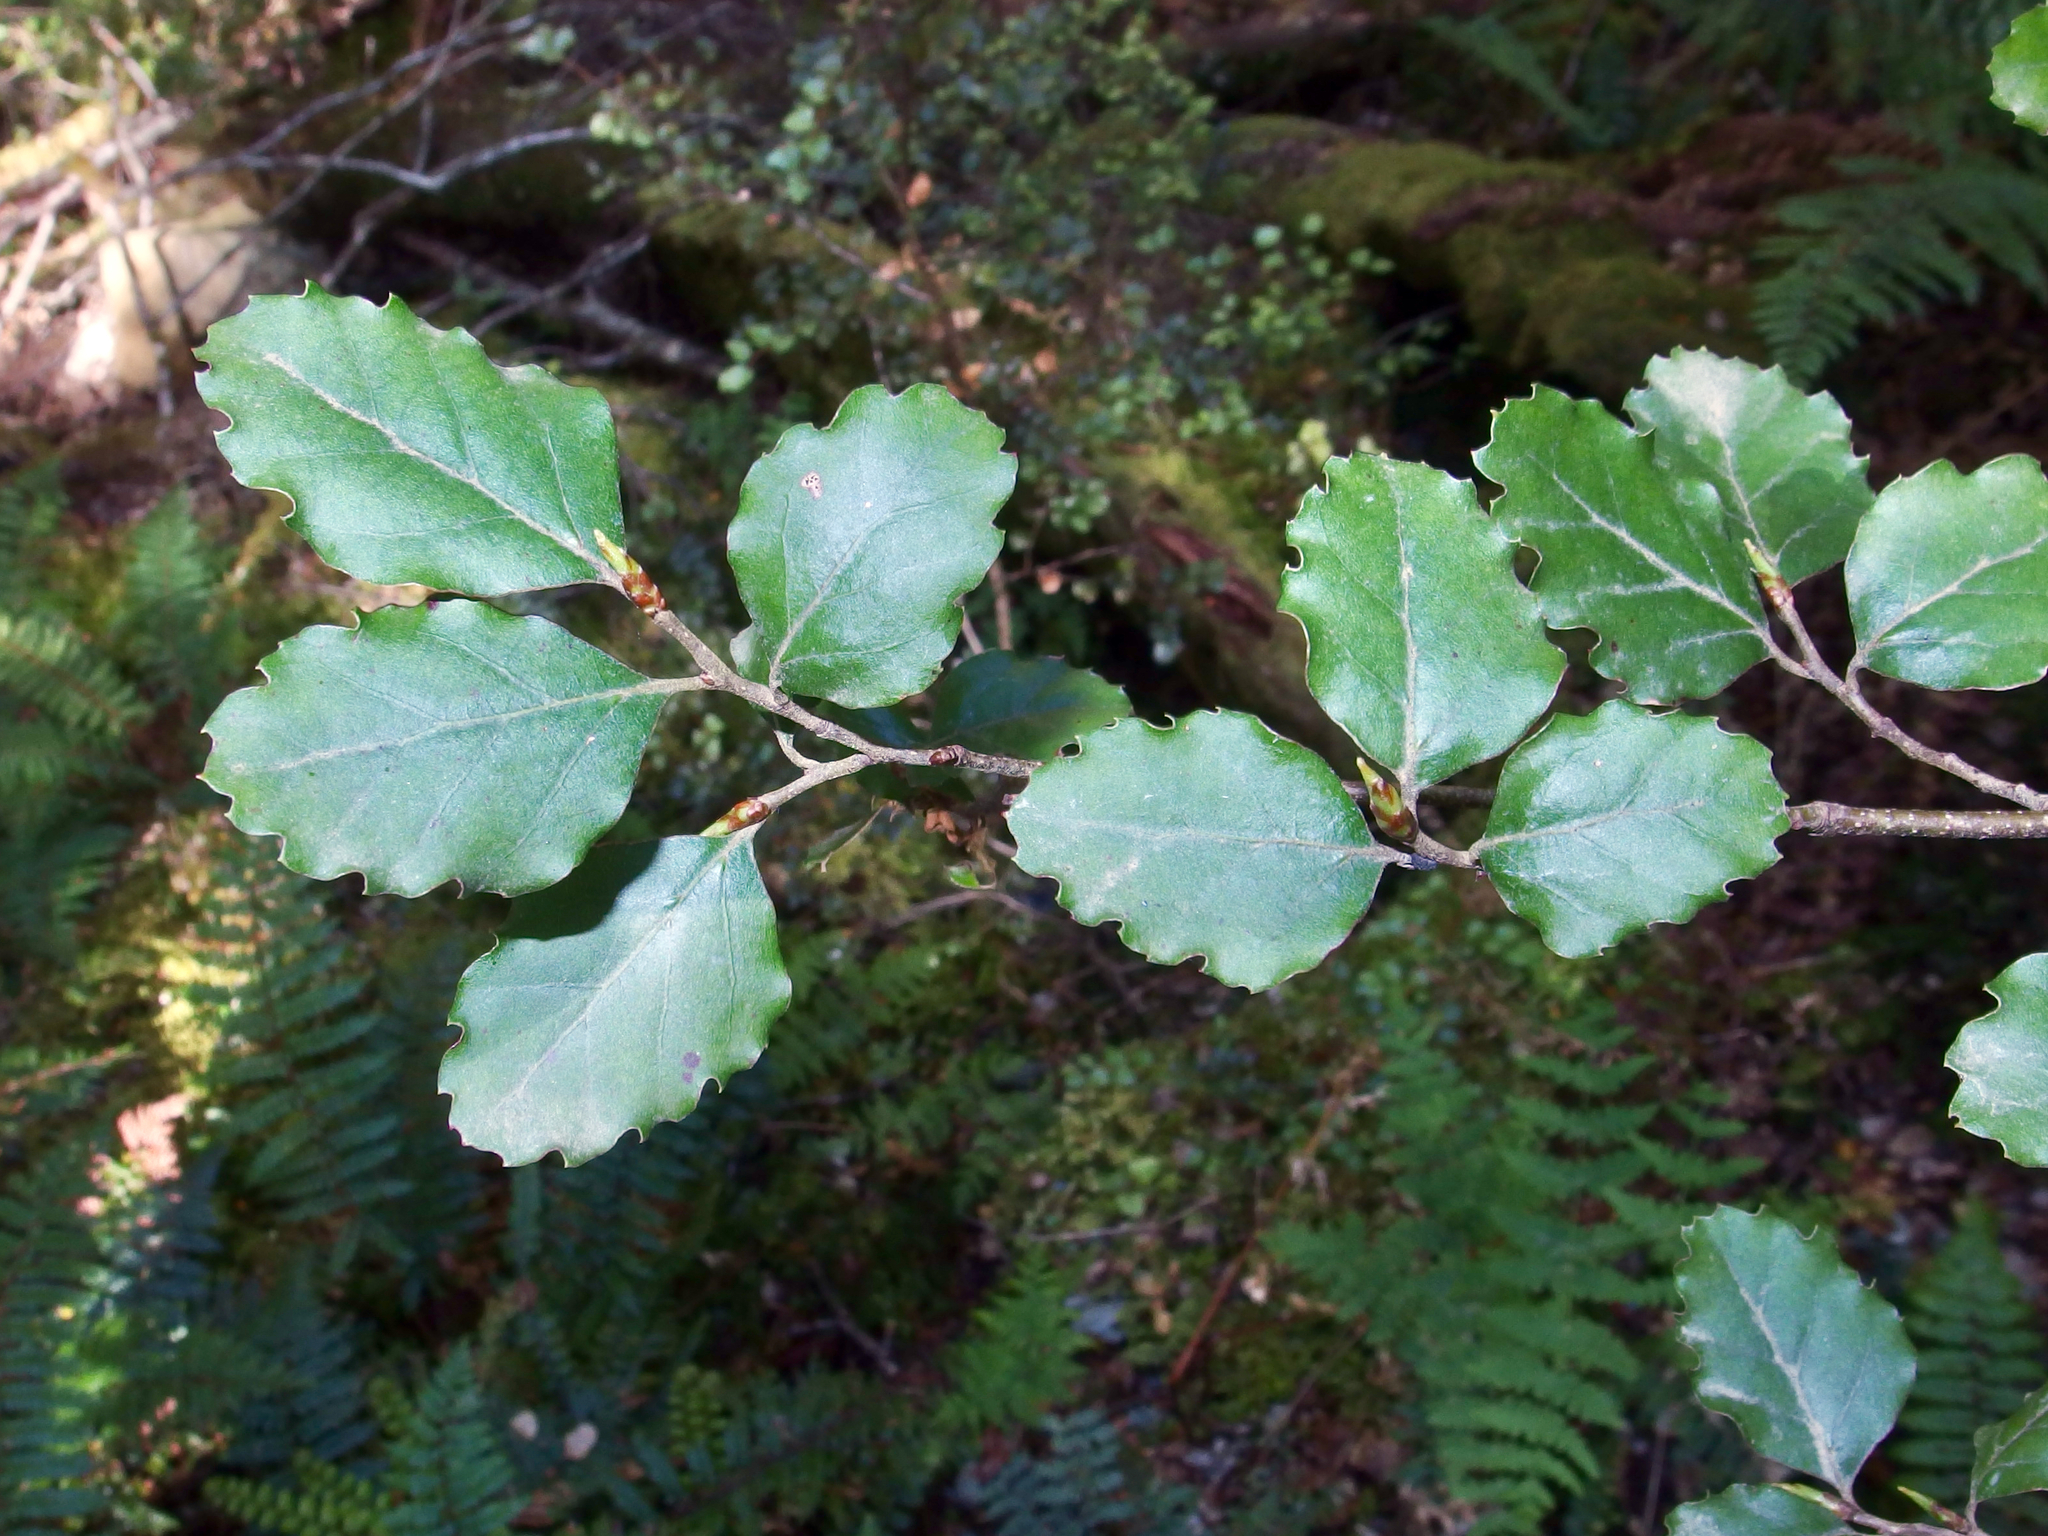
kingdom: Plantae
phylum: Tracheophyta
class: Magnoliopsida
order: Fagales
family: Nothofagaceae
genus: Nothofagus
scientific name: Nothofagus fusca
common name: Red beech
